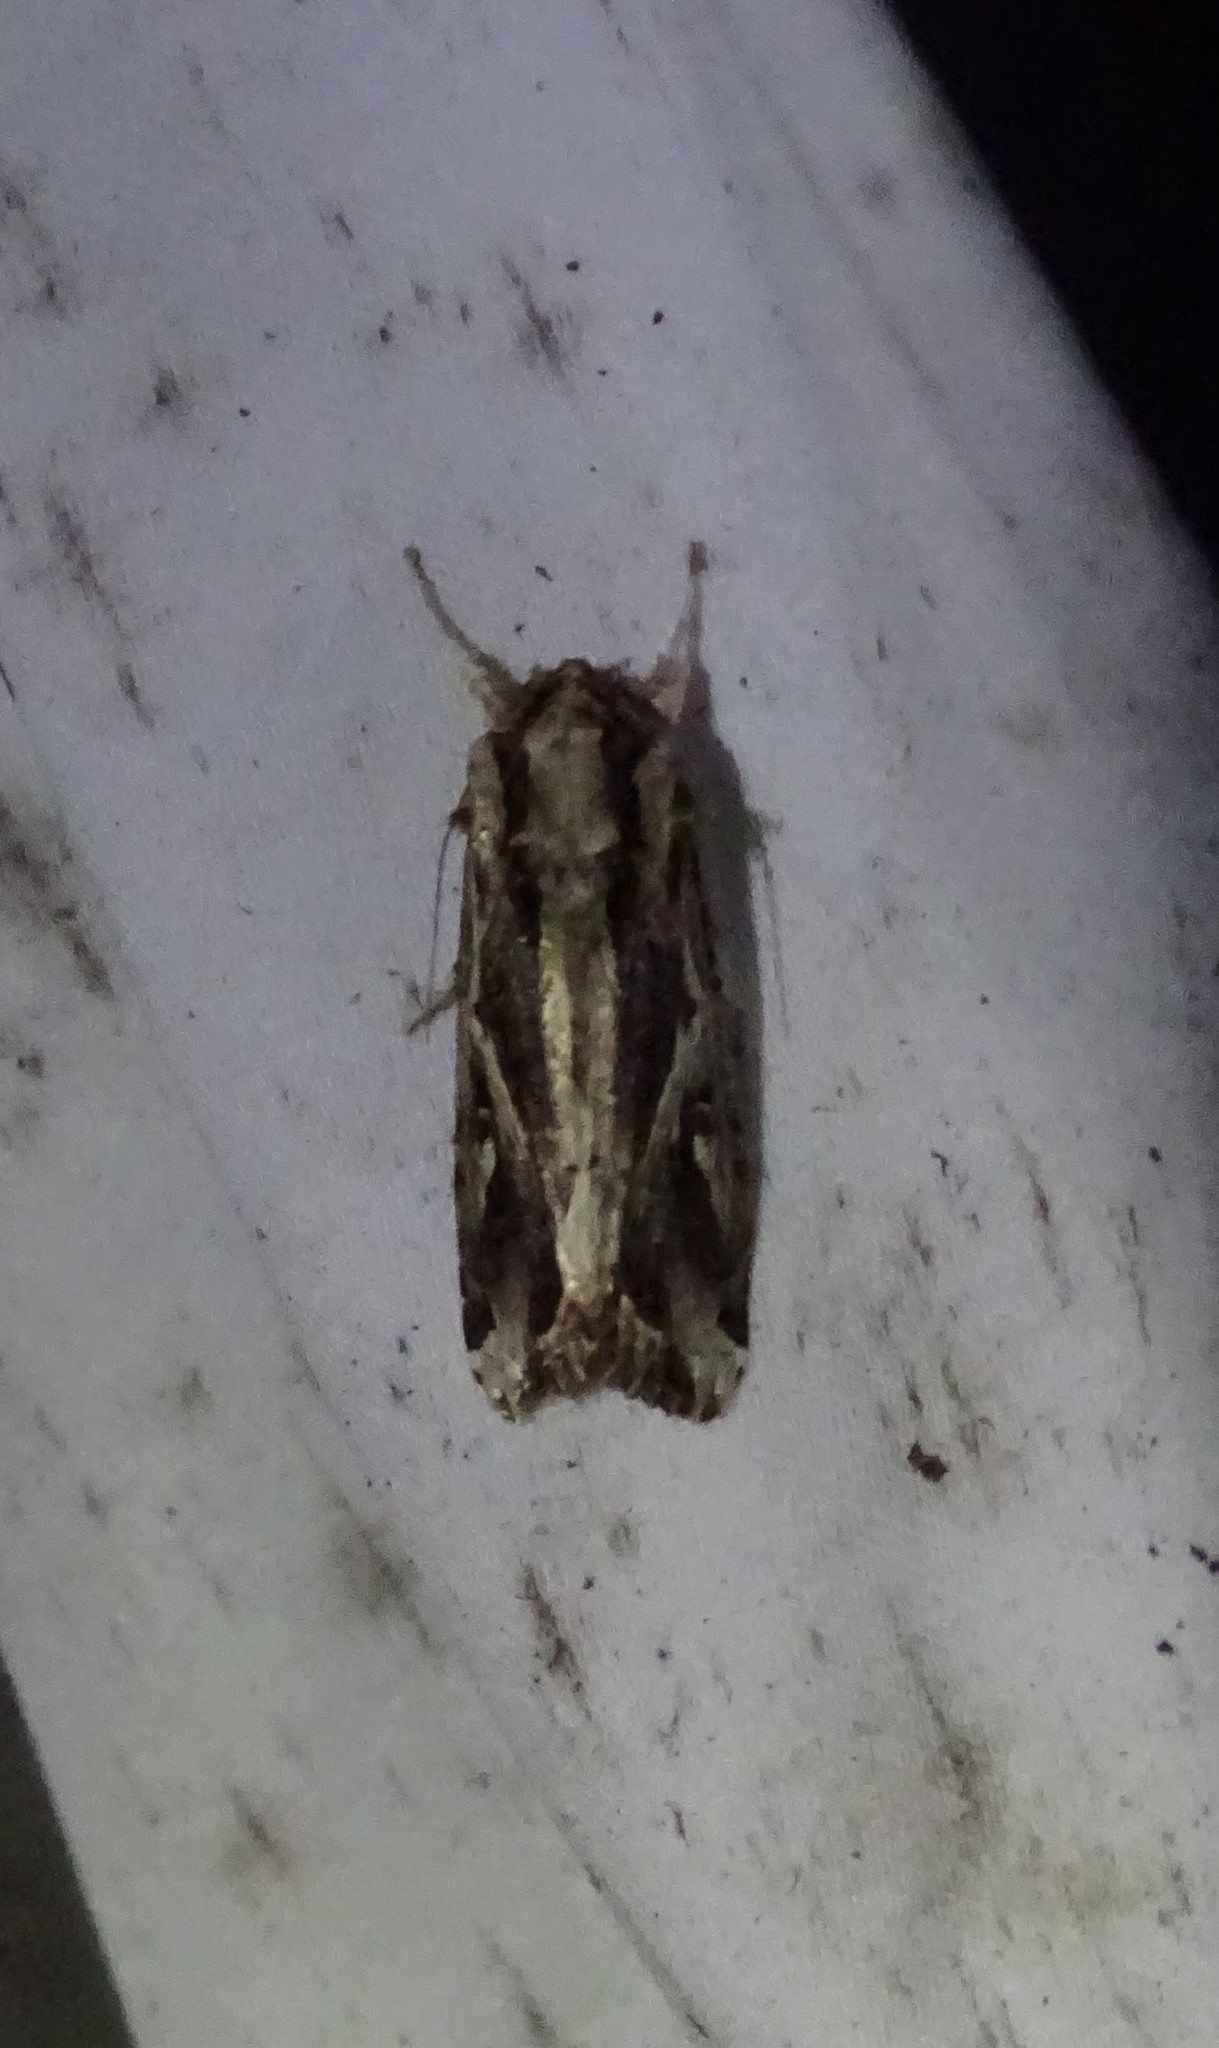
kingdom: Animalia
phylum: Arthropoda
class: Insecta
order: Lepidoptera
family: Noctuidae
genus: Spodoptera
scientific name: Spodoptera dolichos
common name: Sweetpotato armyworm
